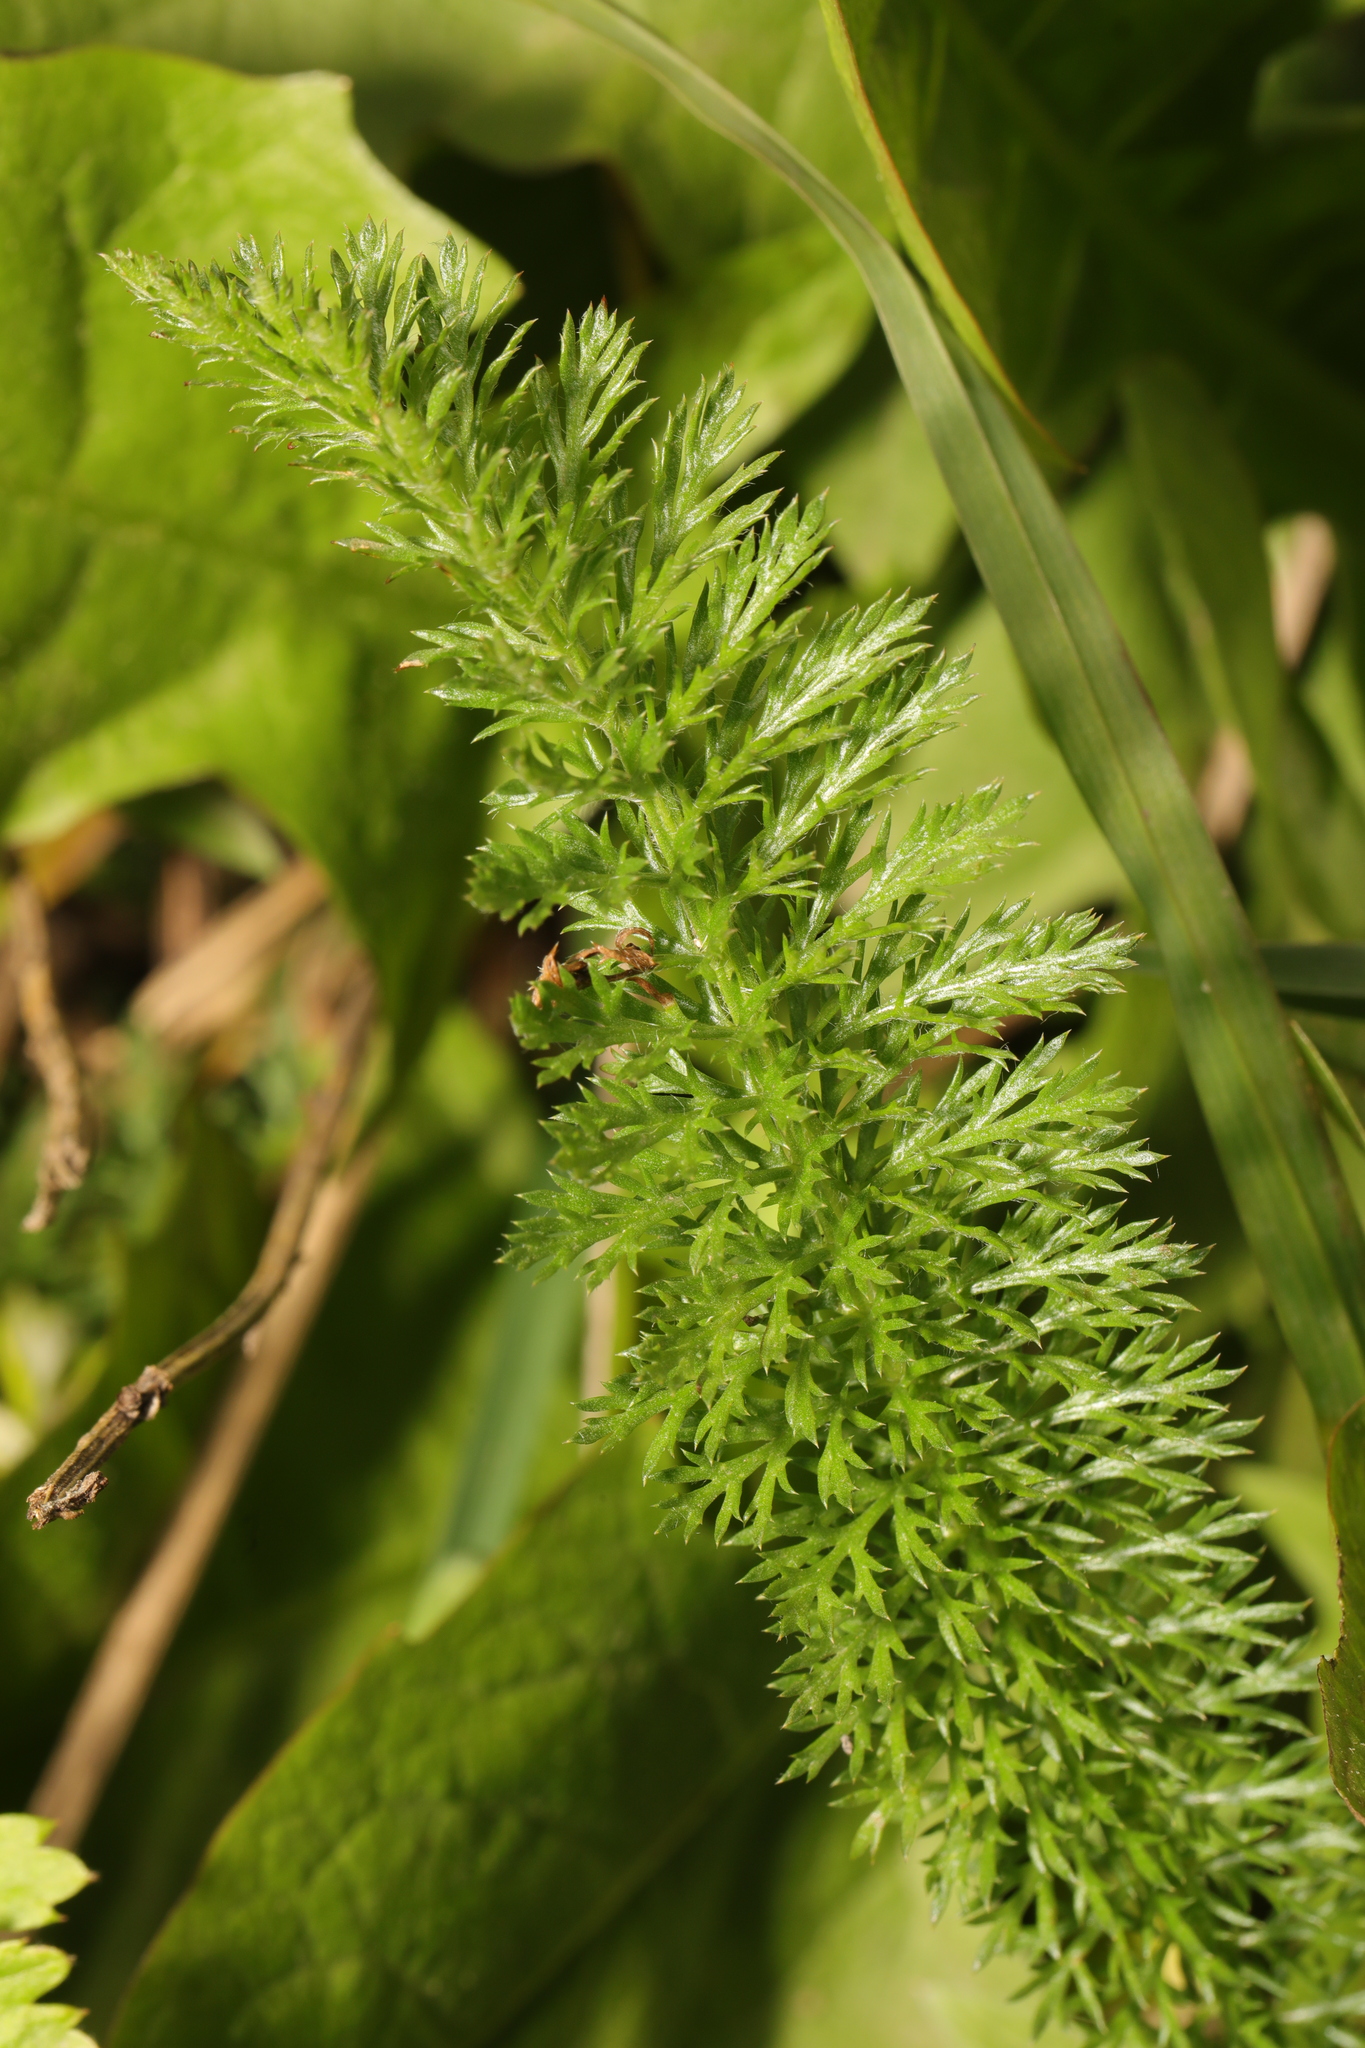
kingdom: Plantae
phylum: Tracheophyta
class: Magnoliopsida
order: Asterales
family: Asteraceae
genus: Achillea
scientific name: Achillea millefolium
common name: Yarrow
